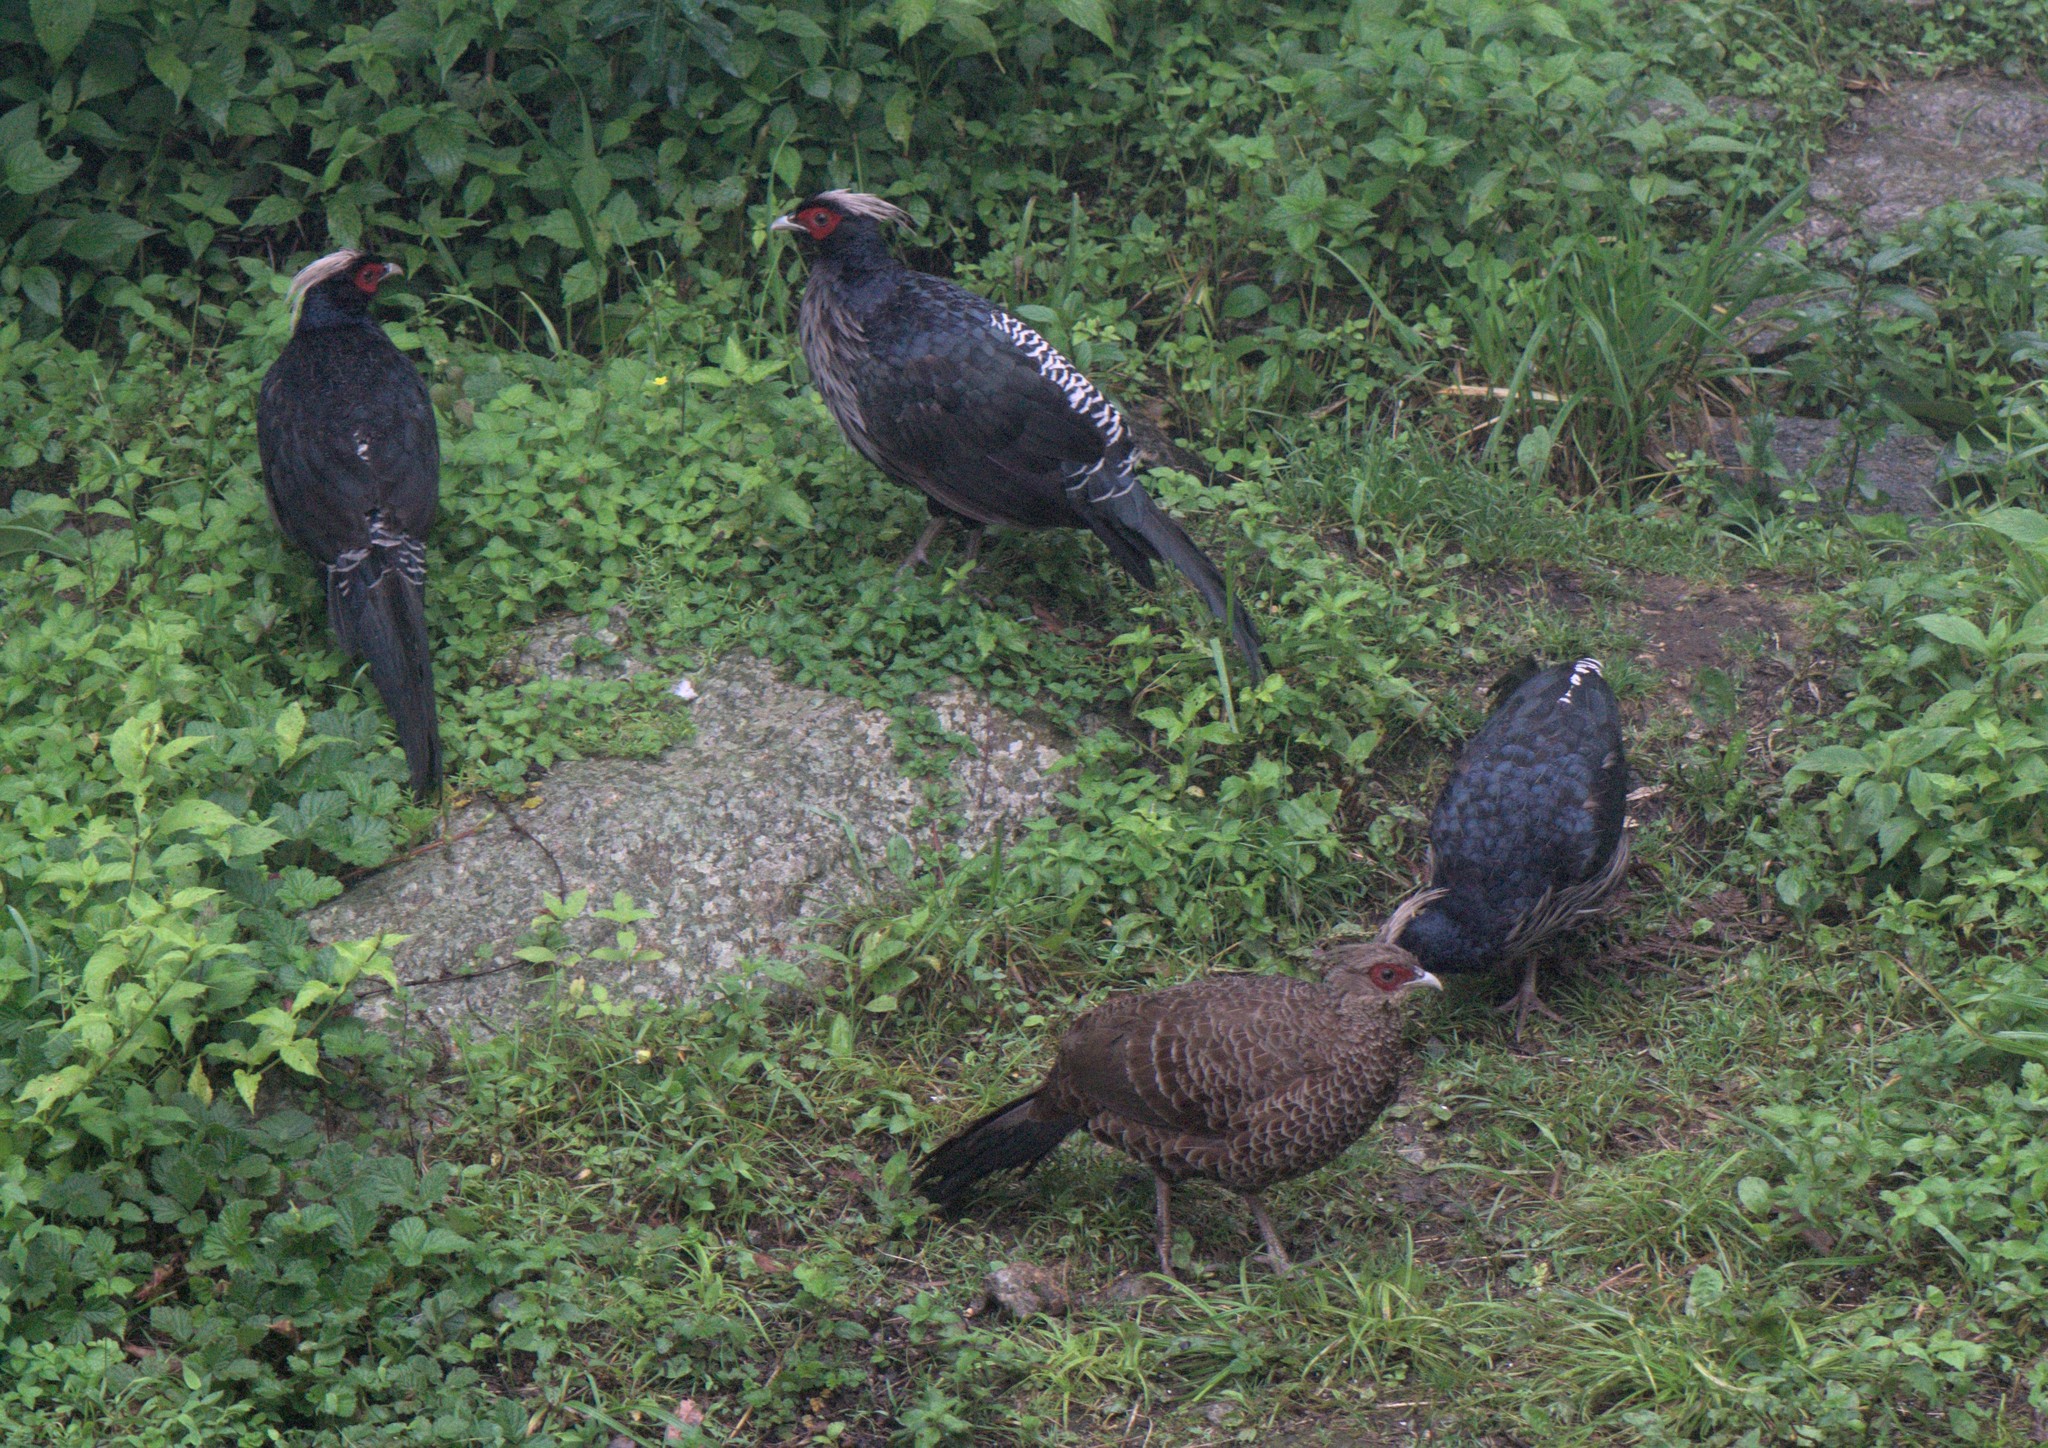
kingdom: Animalia
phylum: Chordata
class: Aves
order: Galliformes
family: Phasianidae
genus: Lophura
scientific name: Lophura leucomelanos
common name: Kalij pheasant
